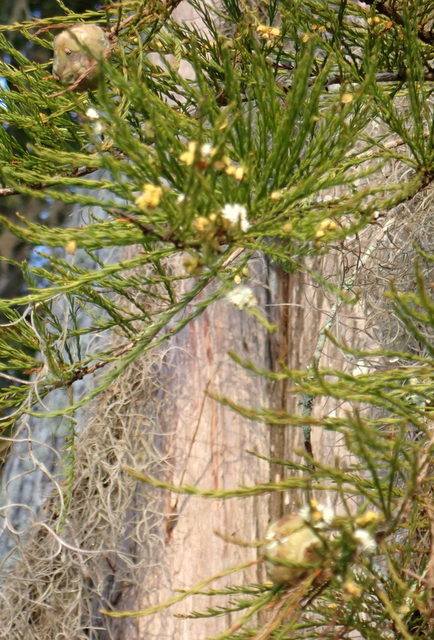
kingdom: Plantae
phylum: Tracheophyta
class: Pinopsida
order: Pinales
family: Cupressaceae
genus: Taxodium
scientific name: Taxodium distichum
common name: Bald cypress
